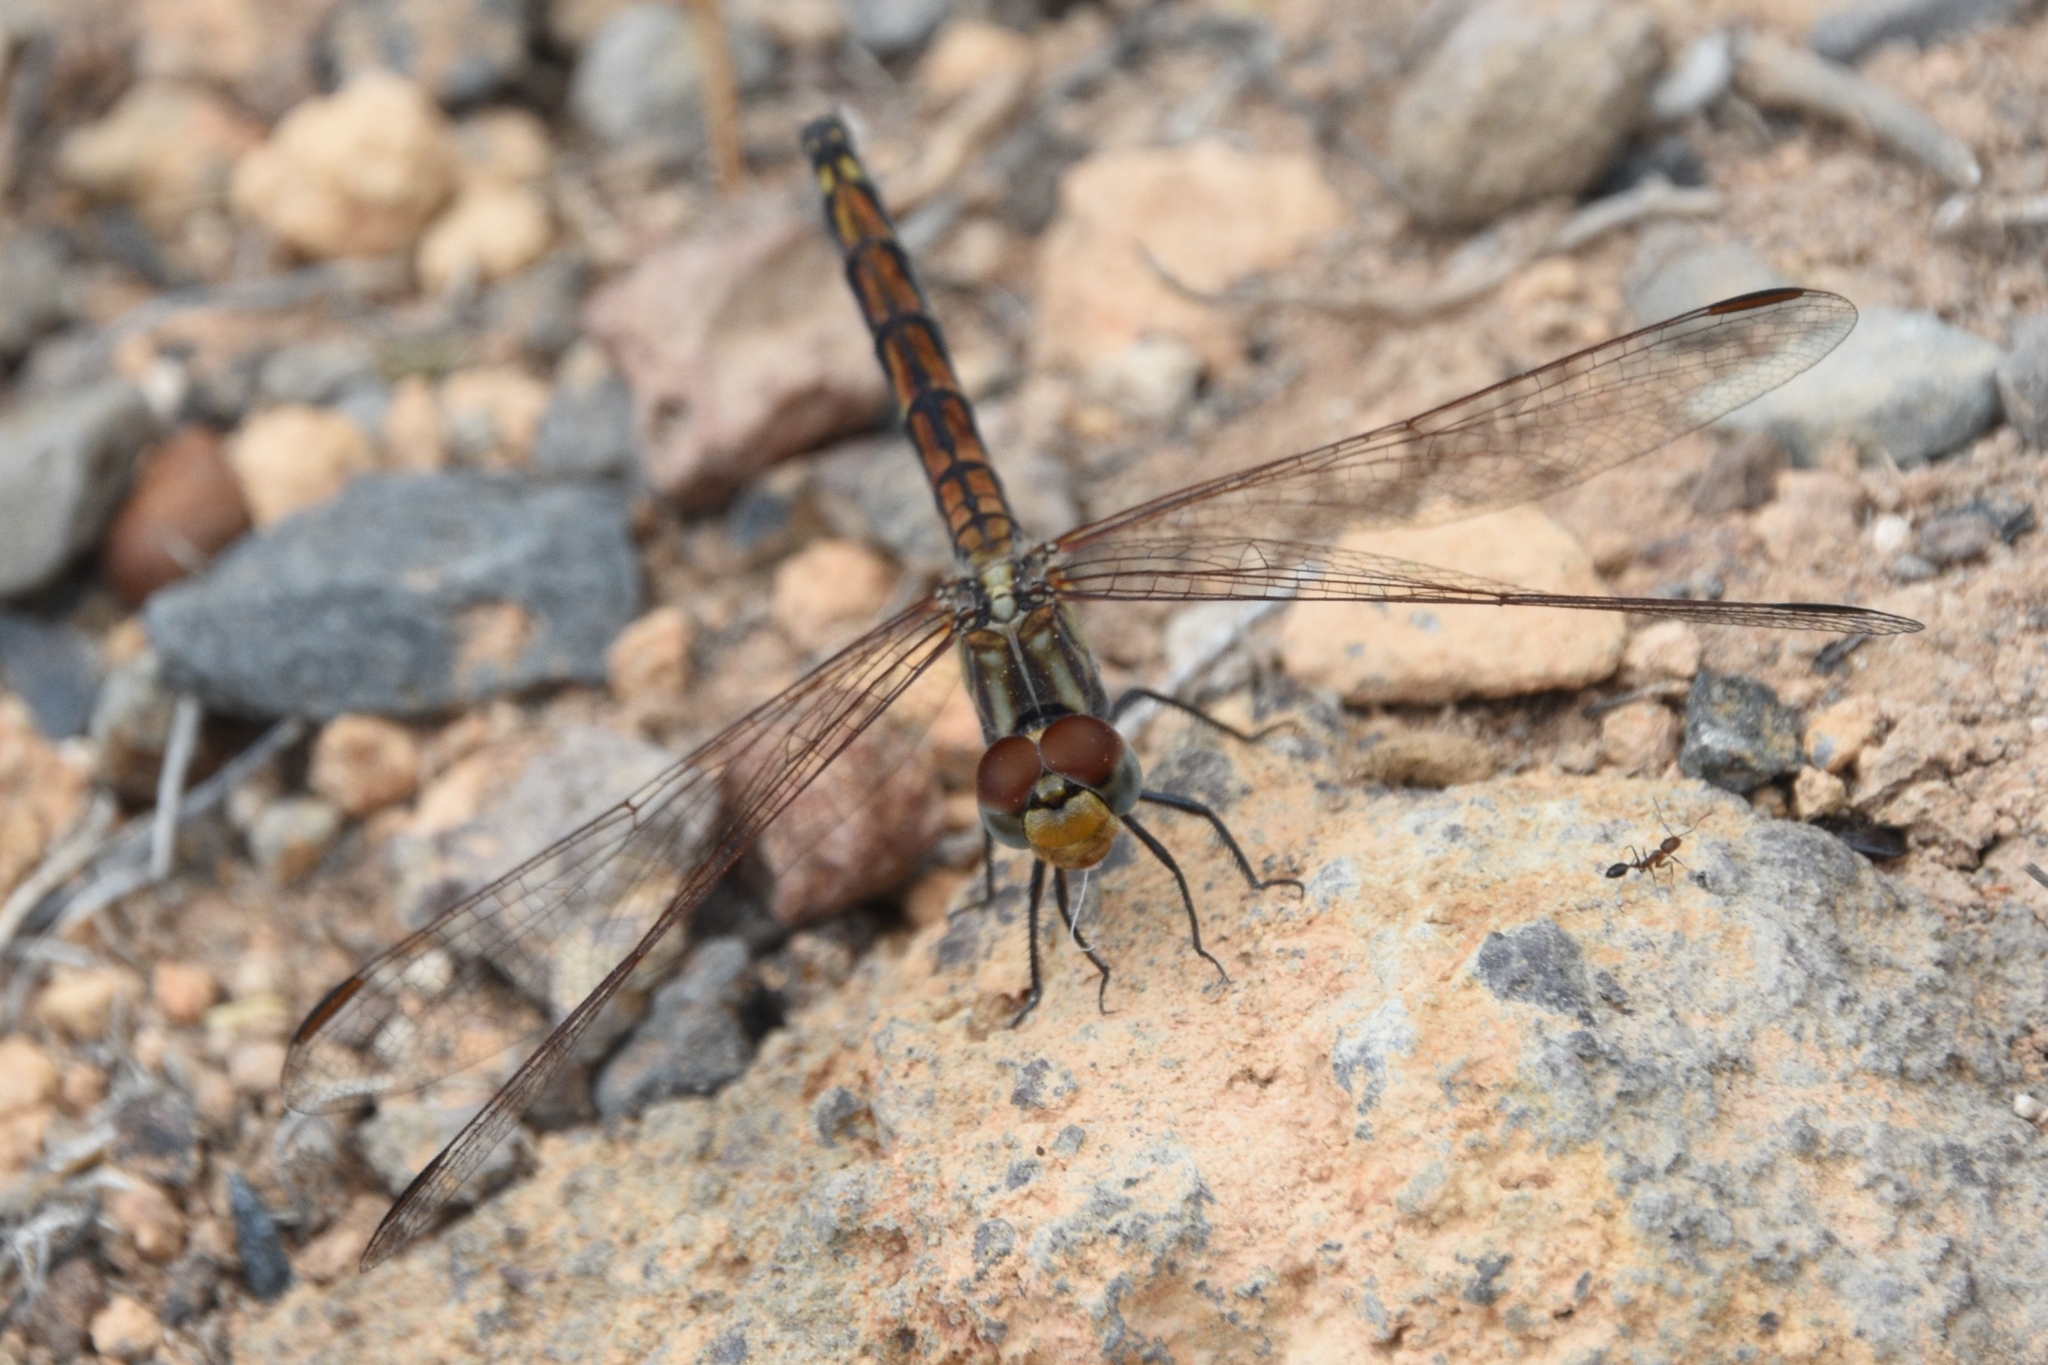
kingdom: Animalia
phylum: Arthropoda
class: Insecta
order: Odonata
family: Libellulidae
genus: Trithemis
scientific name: Trithemis arteriosa
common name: Red-veined dropwing
